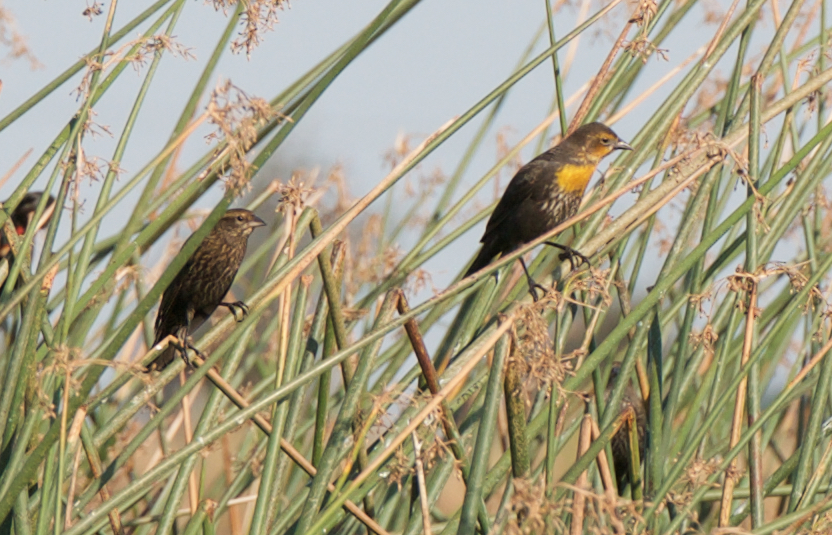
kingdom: Animalia
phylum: Chordata
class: Aves
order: Passeriformes
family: Icteridae
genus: Xanthocephalus
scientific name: Xanthocephalus xanthocephalus
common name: Yellow-headed blackbird
